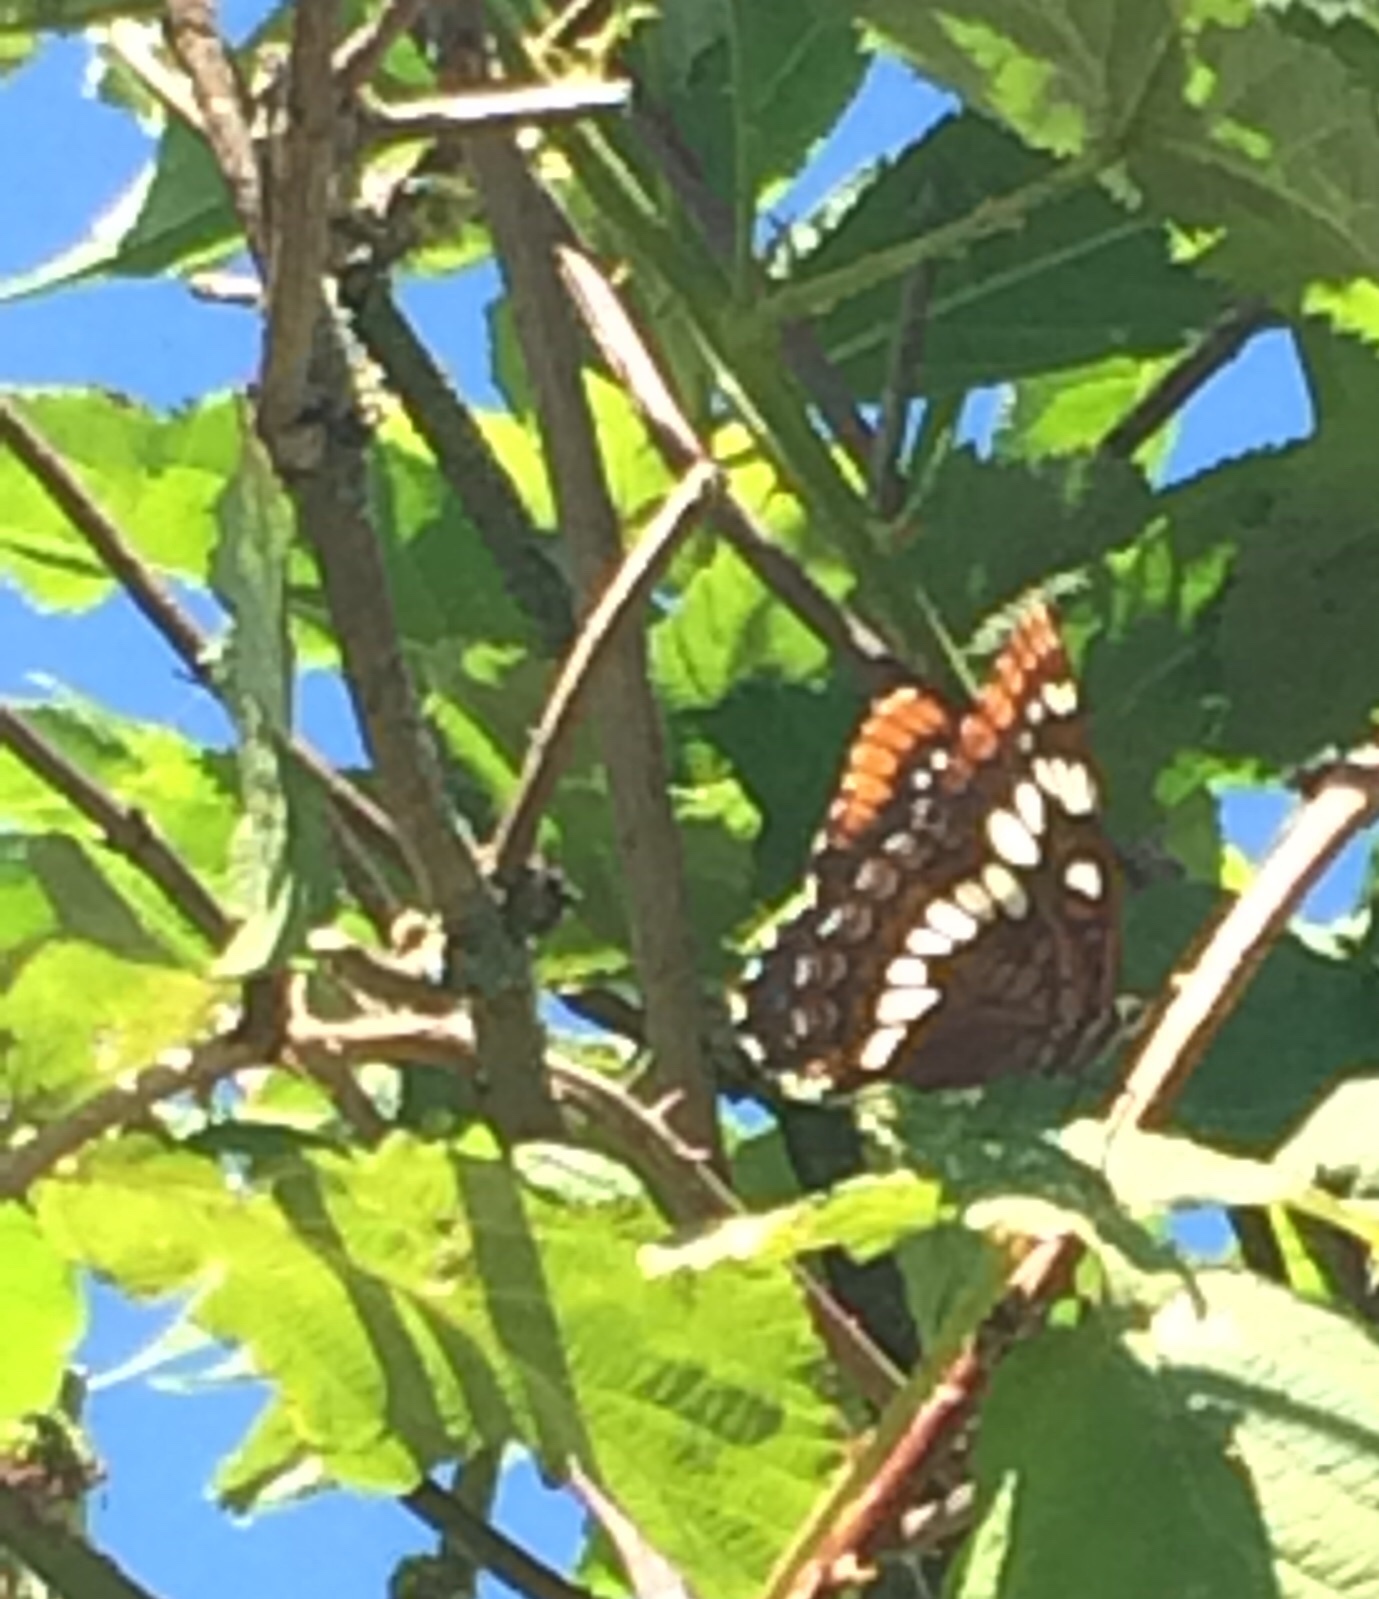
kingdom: Animalia
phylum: Arthropoda
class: Insecta
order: Lepidoptera
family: Nymphalidae
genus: Limenitis
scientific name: Limenitis lorquini
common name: Lorquin's admiral
